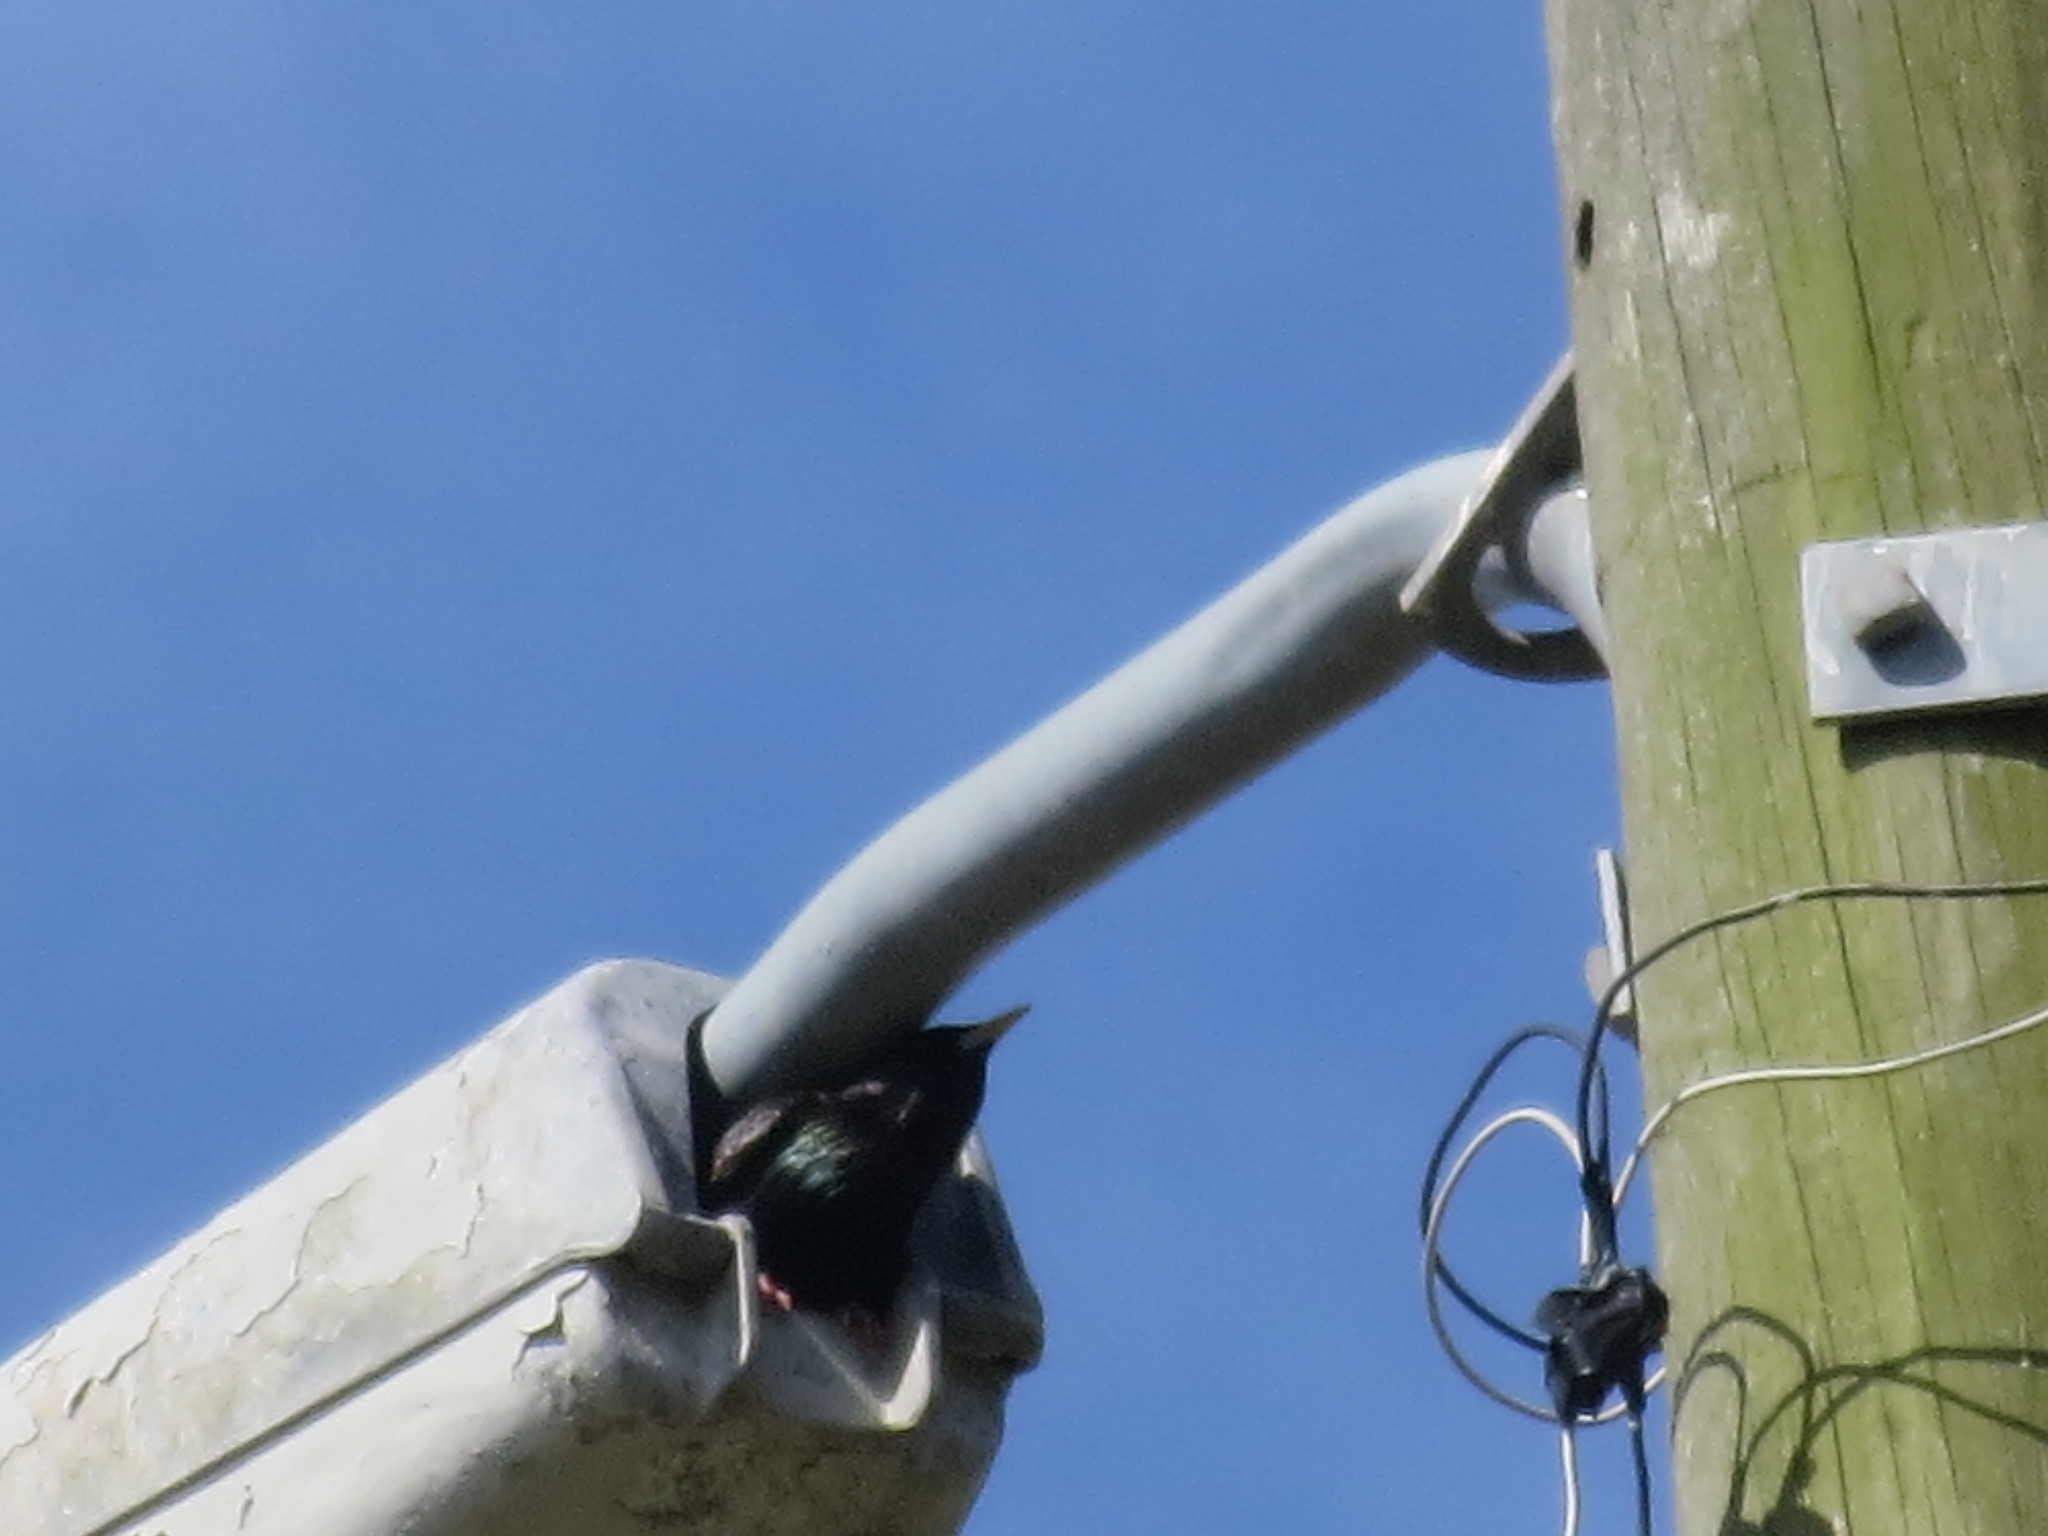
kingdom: Animalia
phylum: Chordata
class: Aves
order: Passeriformes
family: Sturnidae
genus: Sturnus
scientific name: Sturnus vulgaris
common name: Common starling
